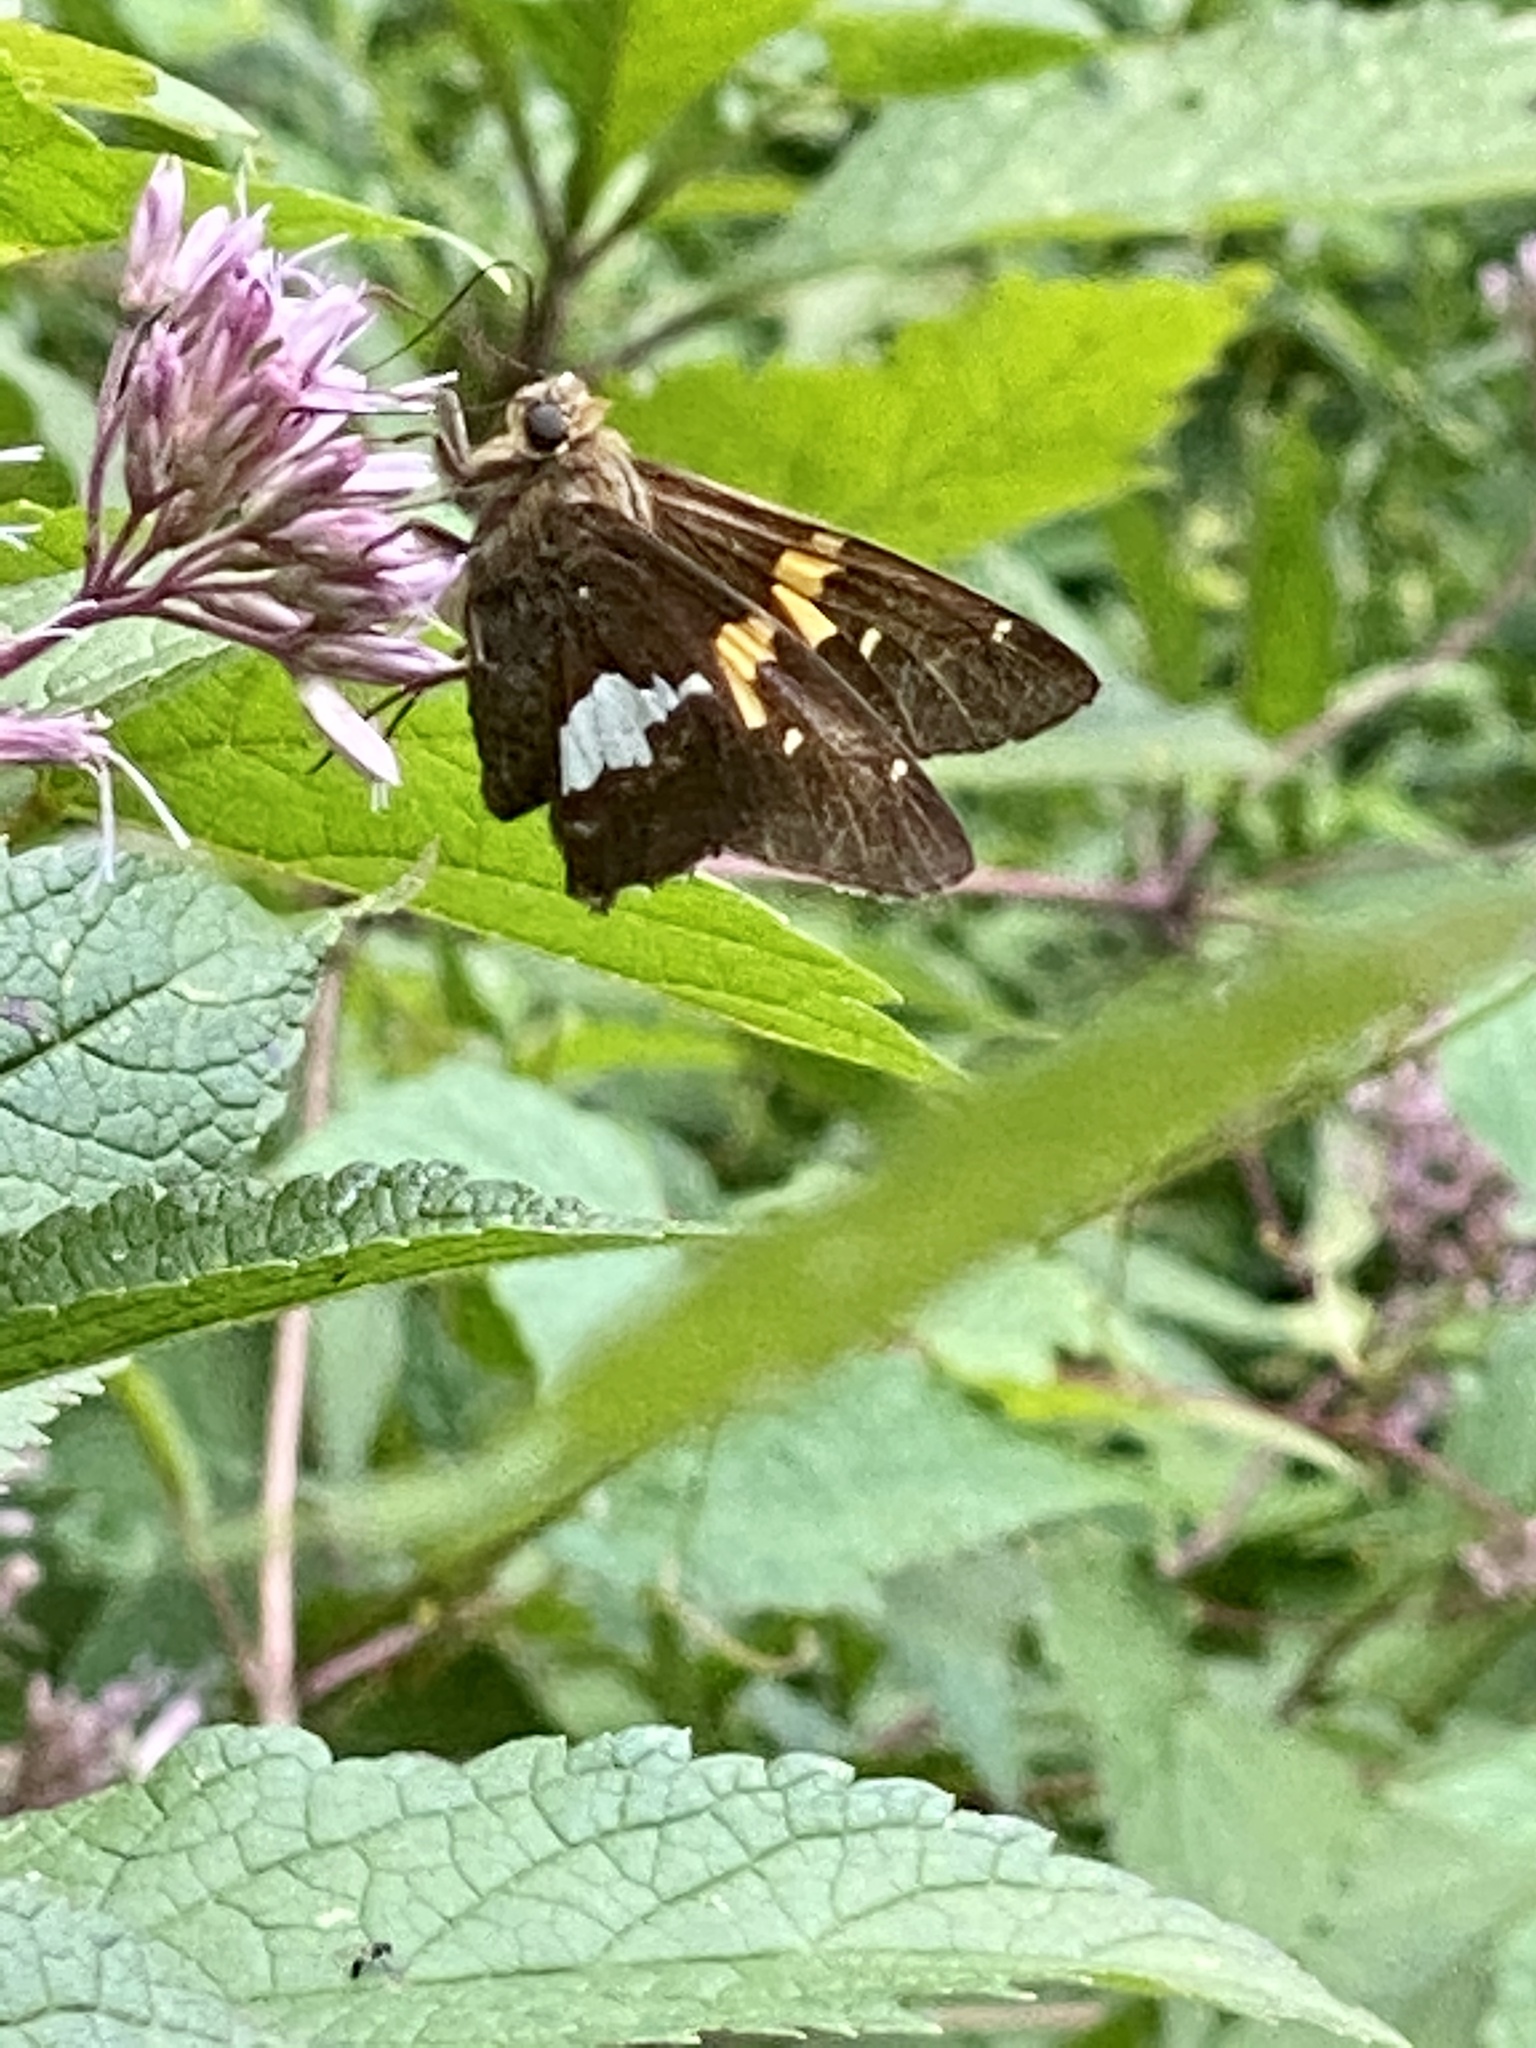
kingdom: Animalia
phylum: Arthropoda
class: Insecta
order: Lepidoptera
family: Hesperiidae
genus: Epargyreus
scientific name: Epargyreus clarus
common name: Silver-spotted skipper
